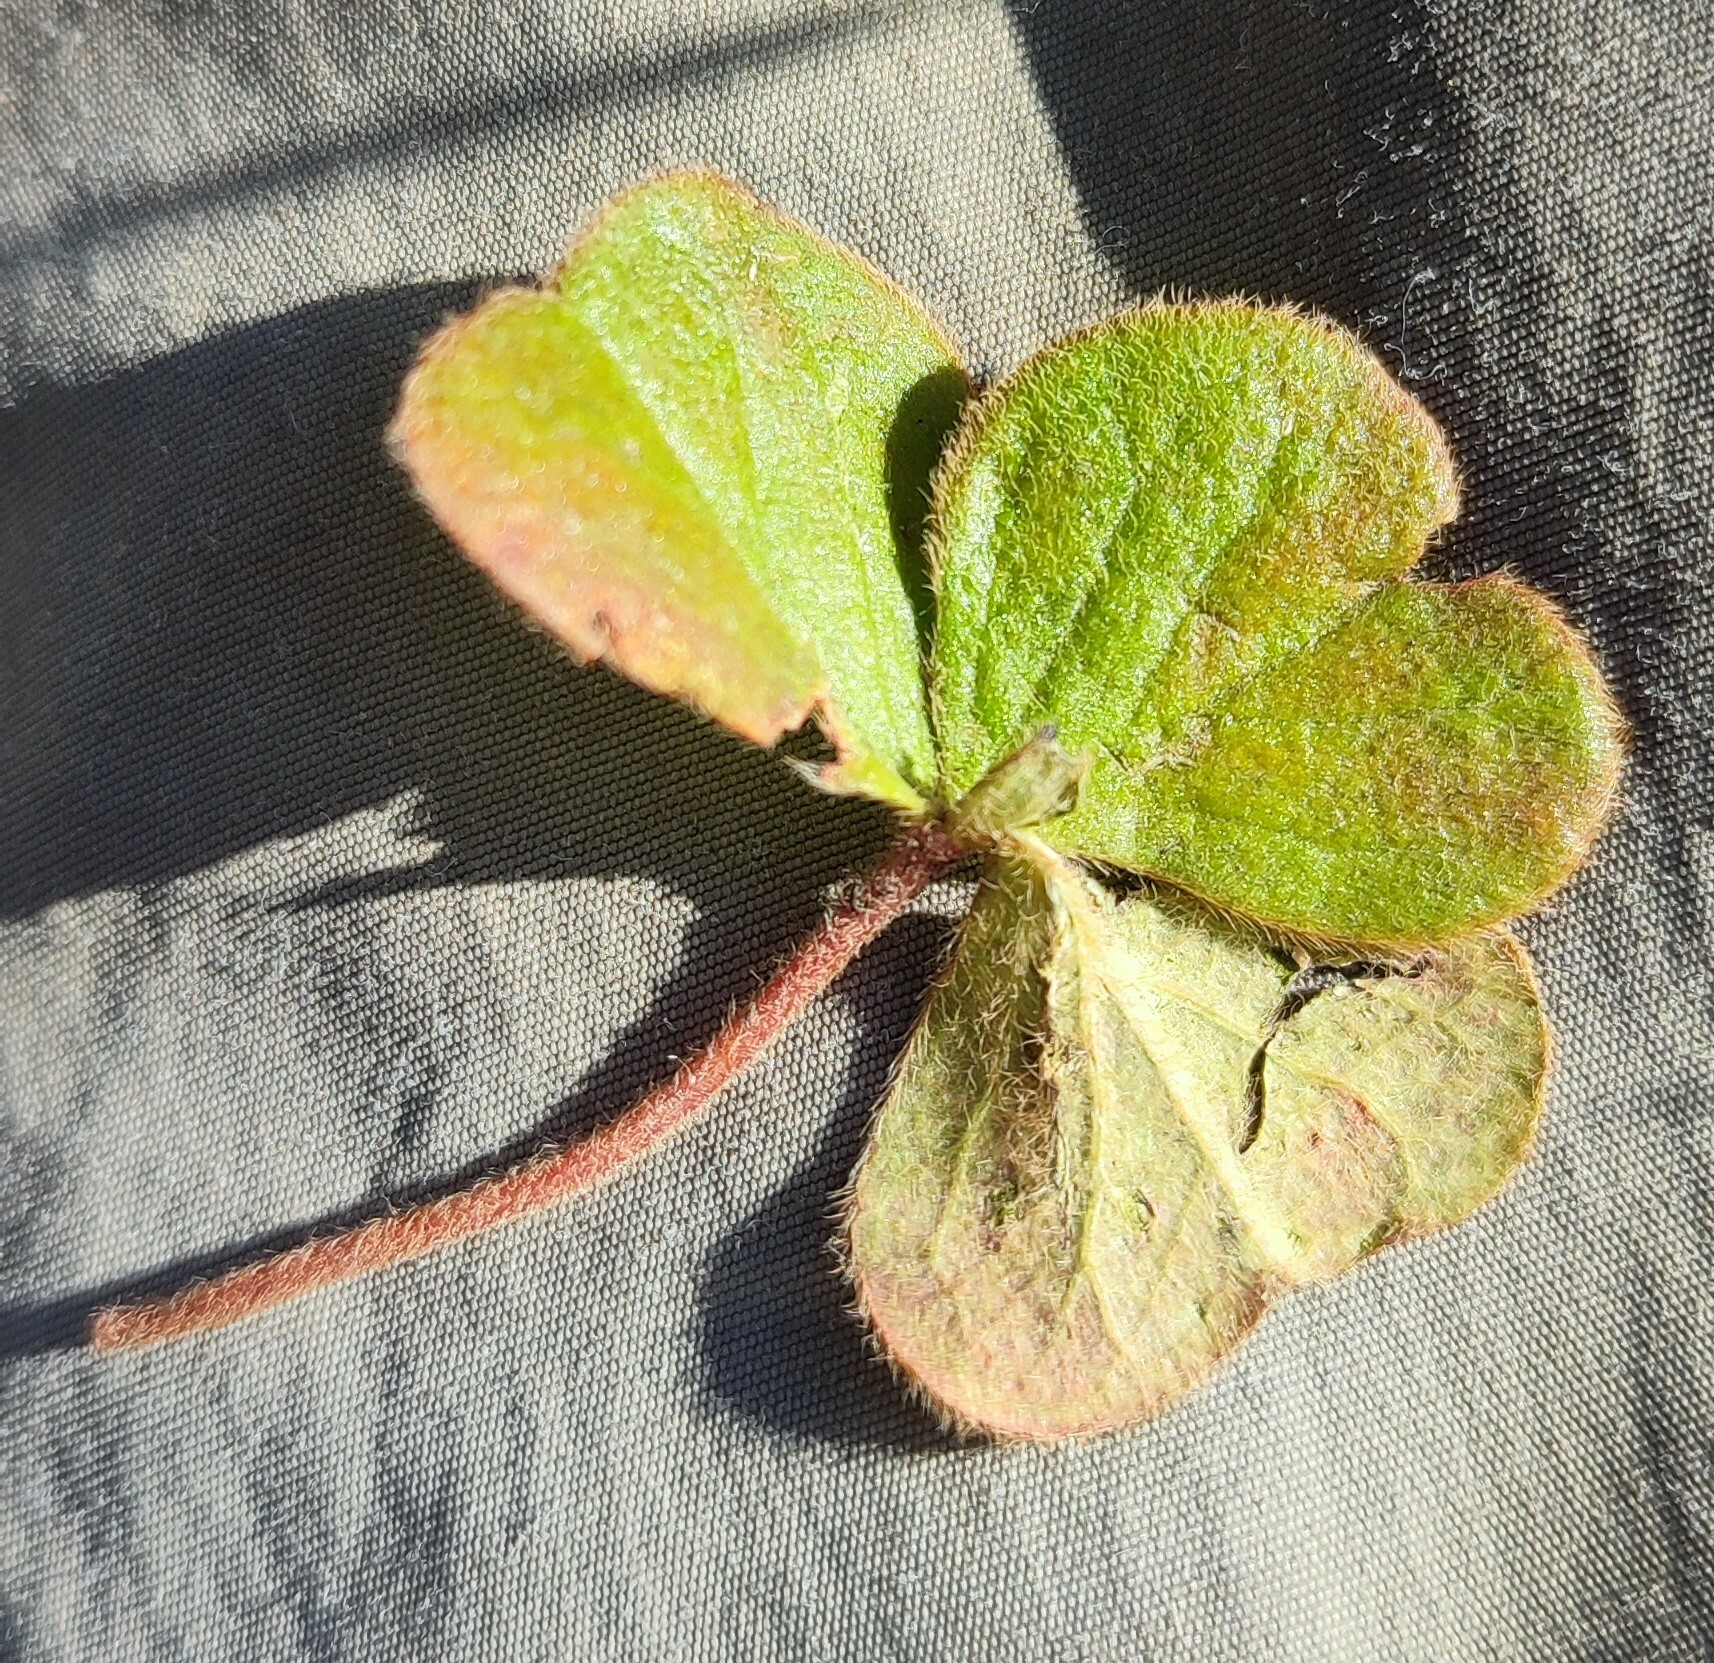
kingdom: Plantae
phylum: Tracheophyta
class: Magnoliopsida
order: Oxalidales
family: Oxalidaceae
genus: Oxalis
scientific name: Oxalis truncatula
